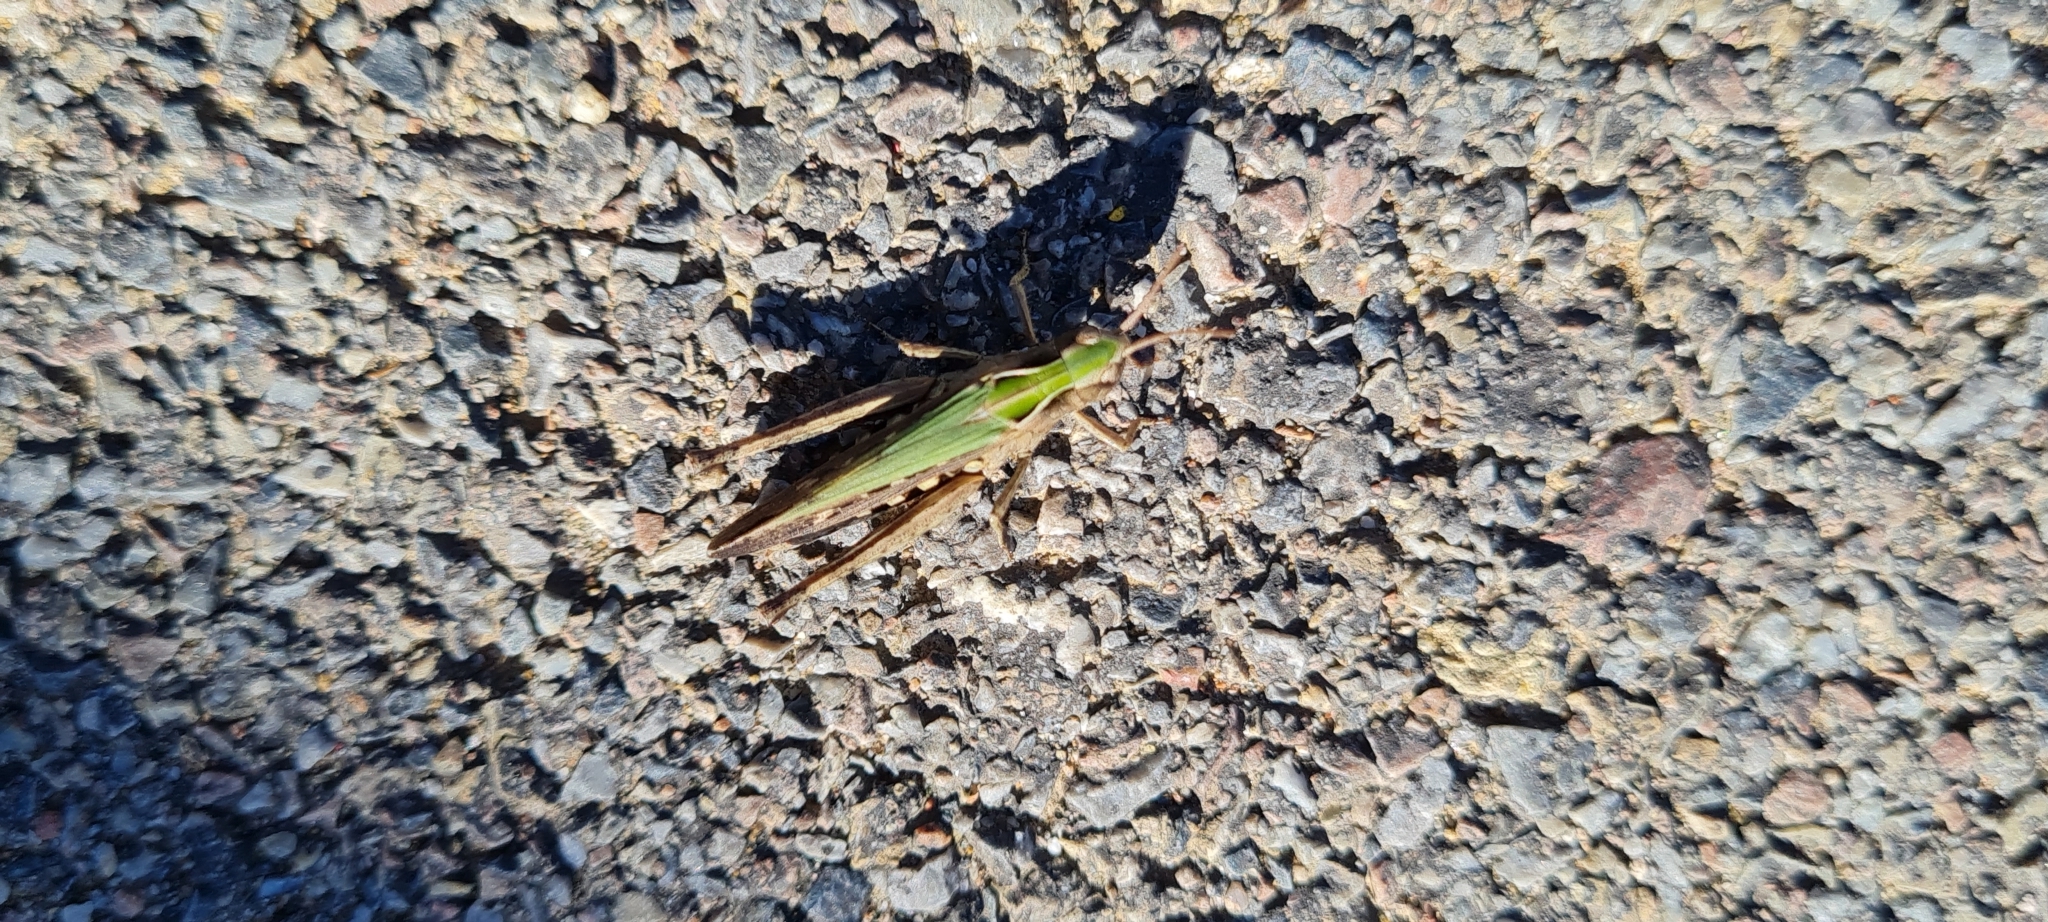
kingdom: Animalia
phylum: Arthropoda
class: Insecta
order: Orthoptera
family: Acrididae
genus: Omocestus
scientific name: Omocestus rufipes
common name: Woodland grasshopper
